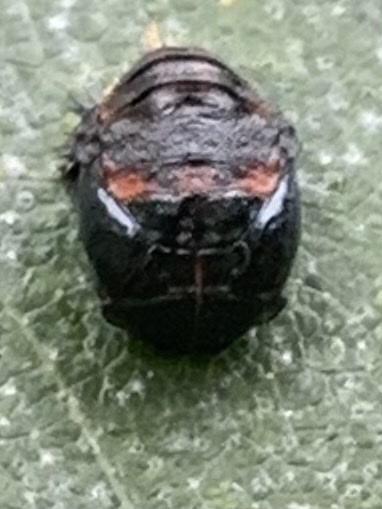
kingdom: Animalia
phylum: Arthropoda
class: Insecta
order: Coleoptera
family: Coccinellidae
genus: Harmonia
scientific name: Harmonia axyridis
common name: Harlequin ladybird
